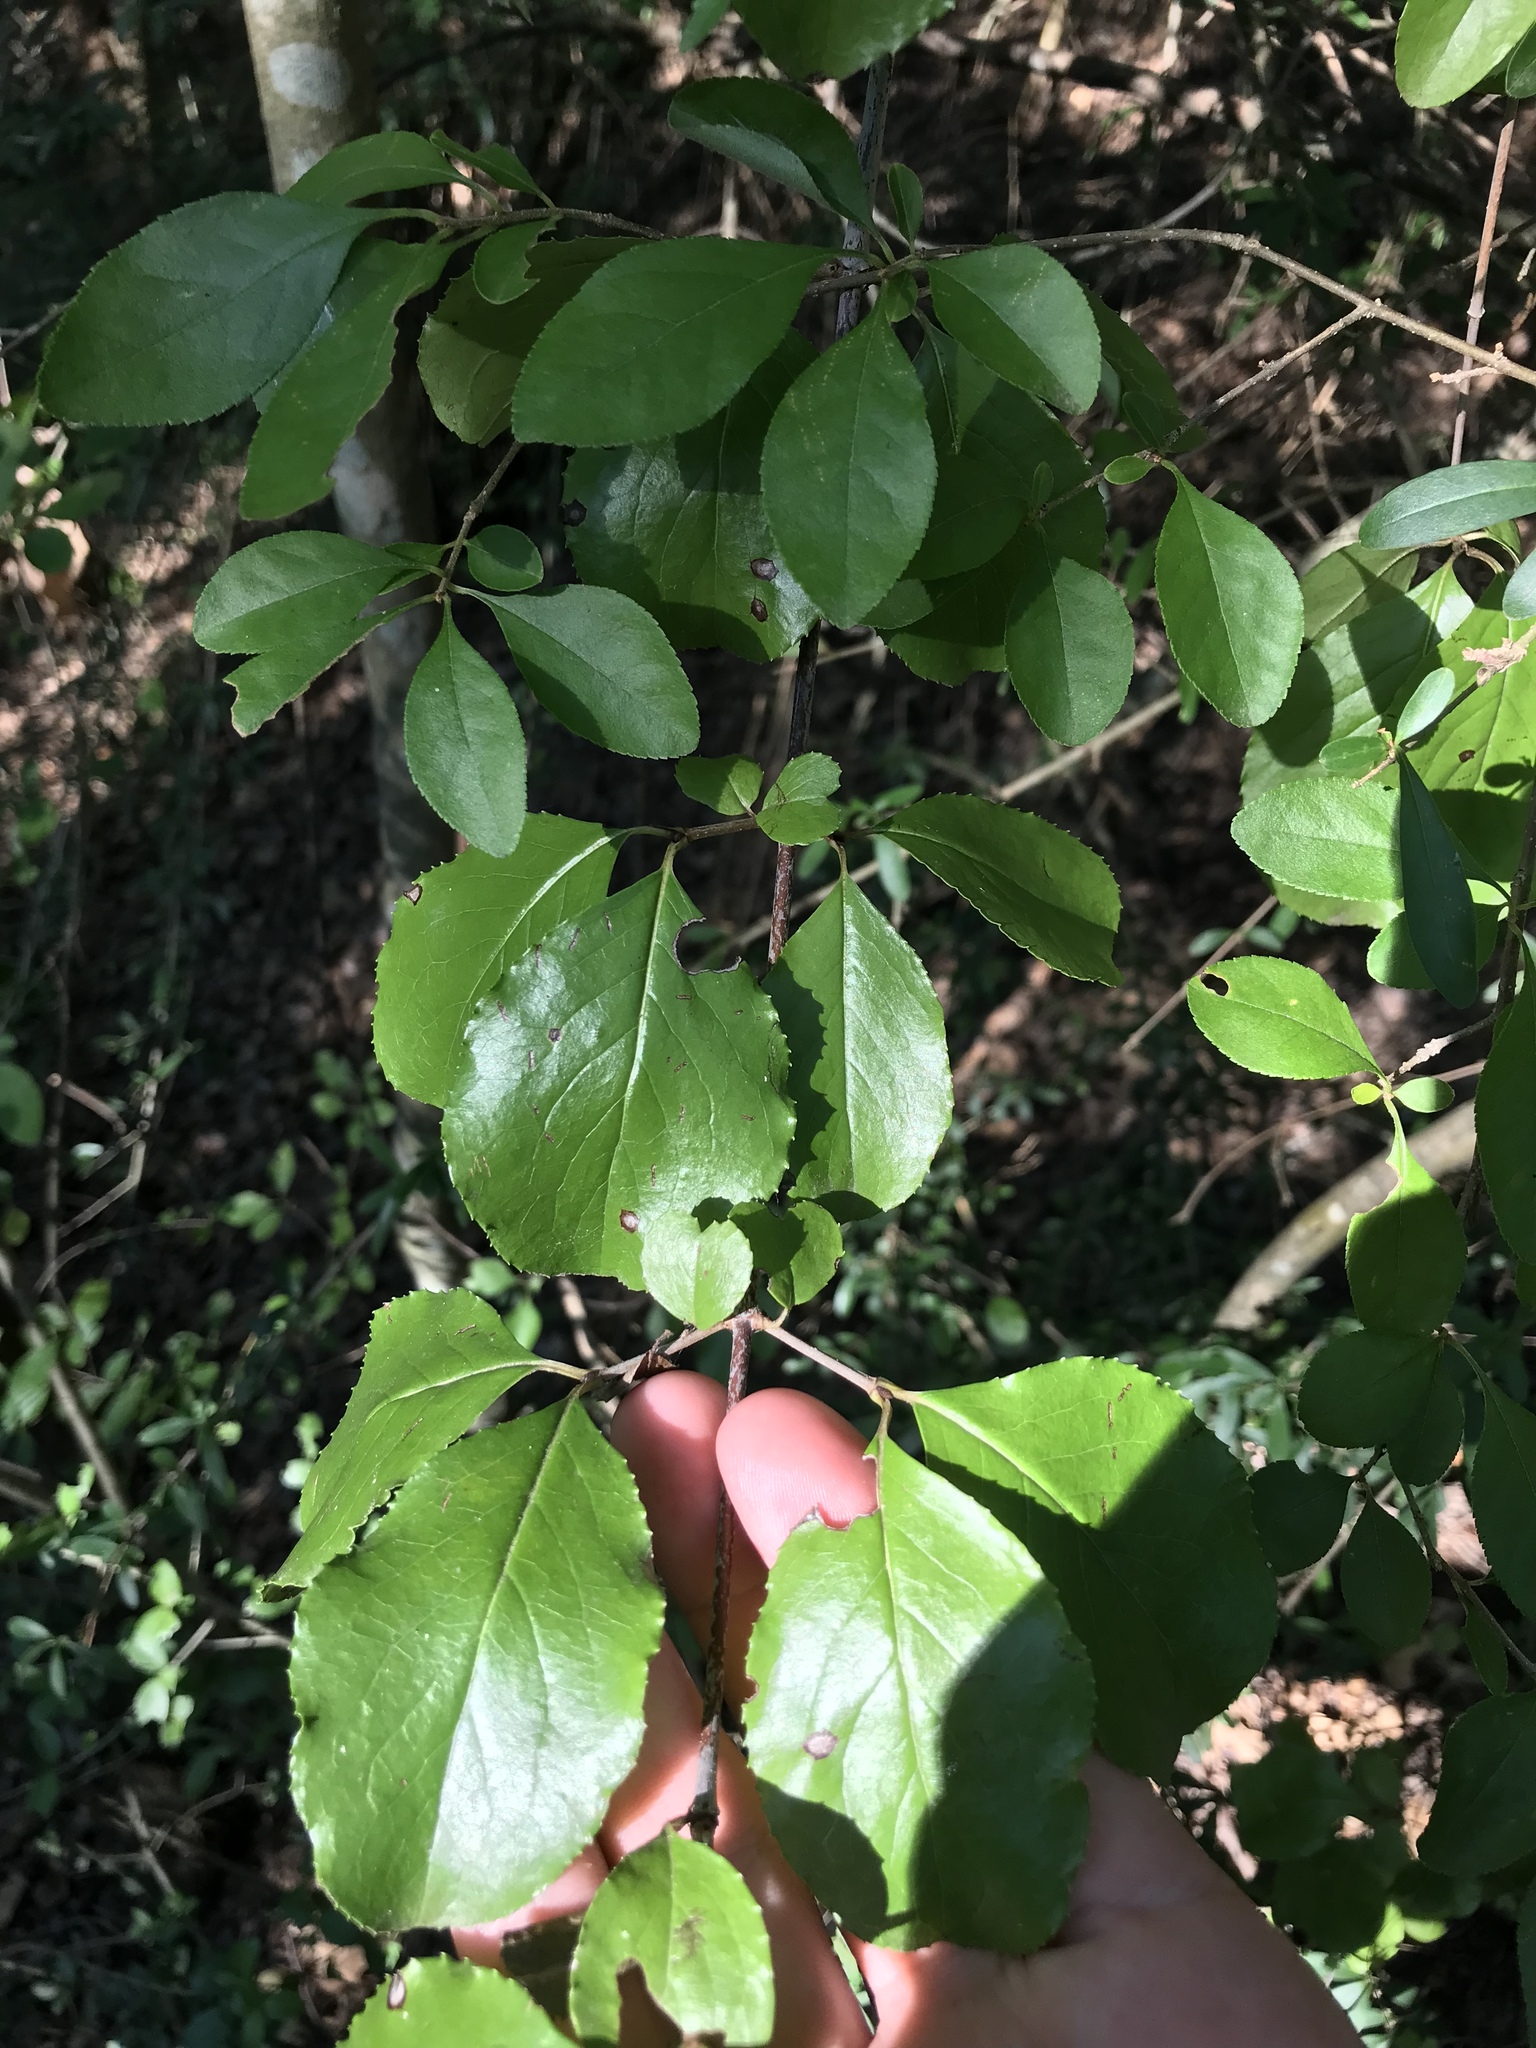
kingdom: Plantae
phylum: Tracheophyta
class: Magnoliopsida
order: Dipsacales
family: Viburnaceae
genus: Viburnum
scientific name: Viburnum rufidulum
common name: Blue haw
